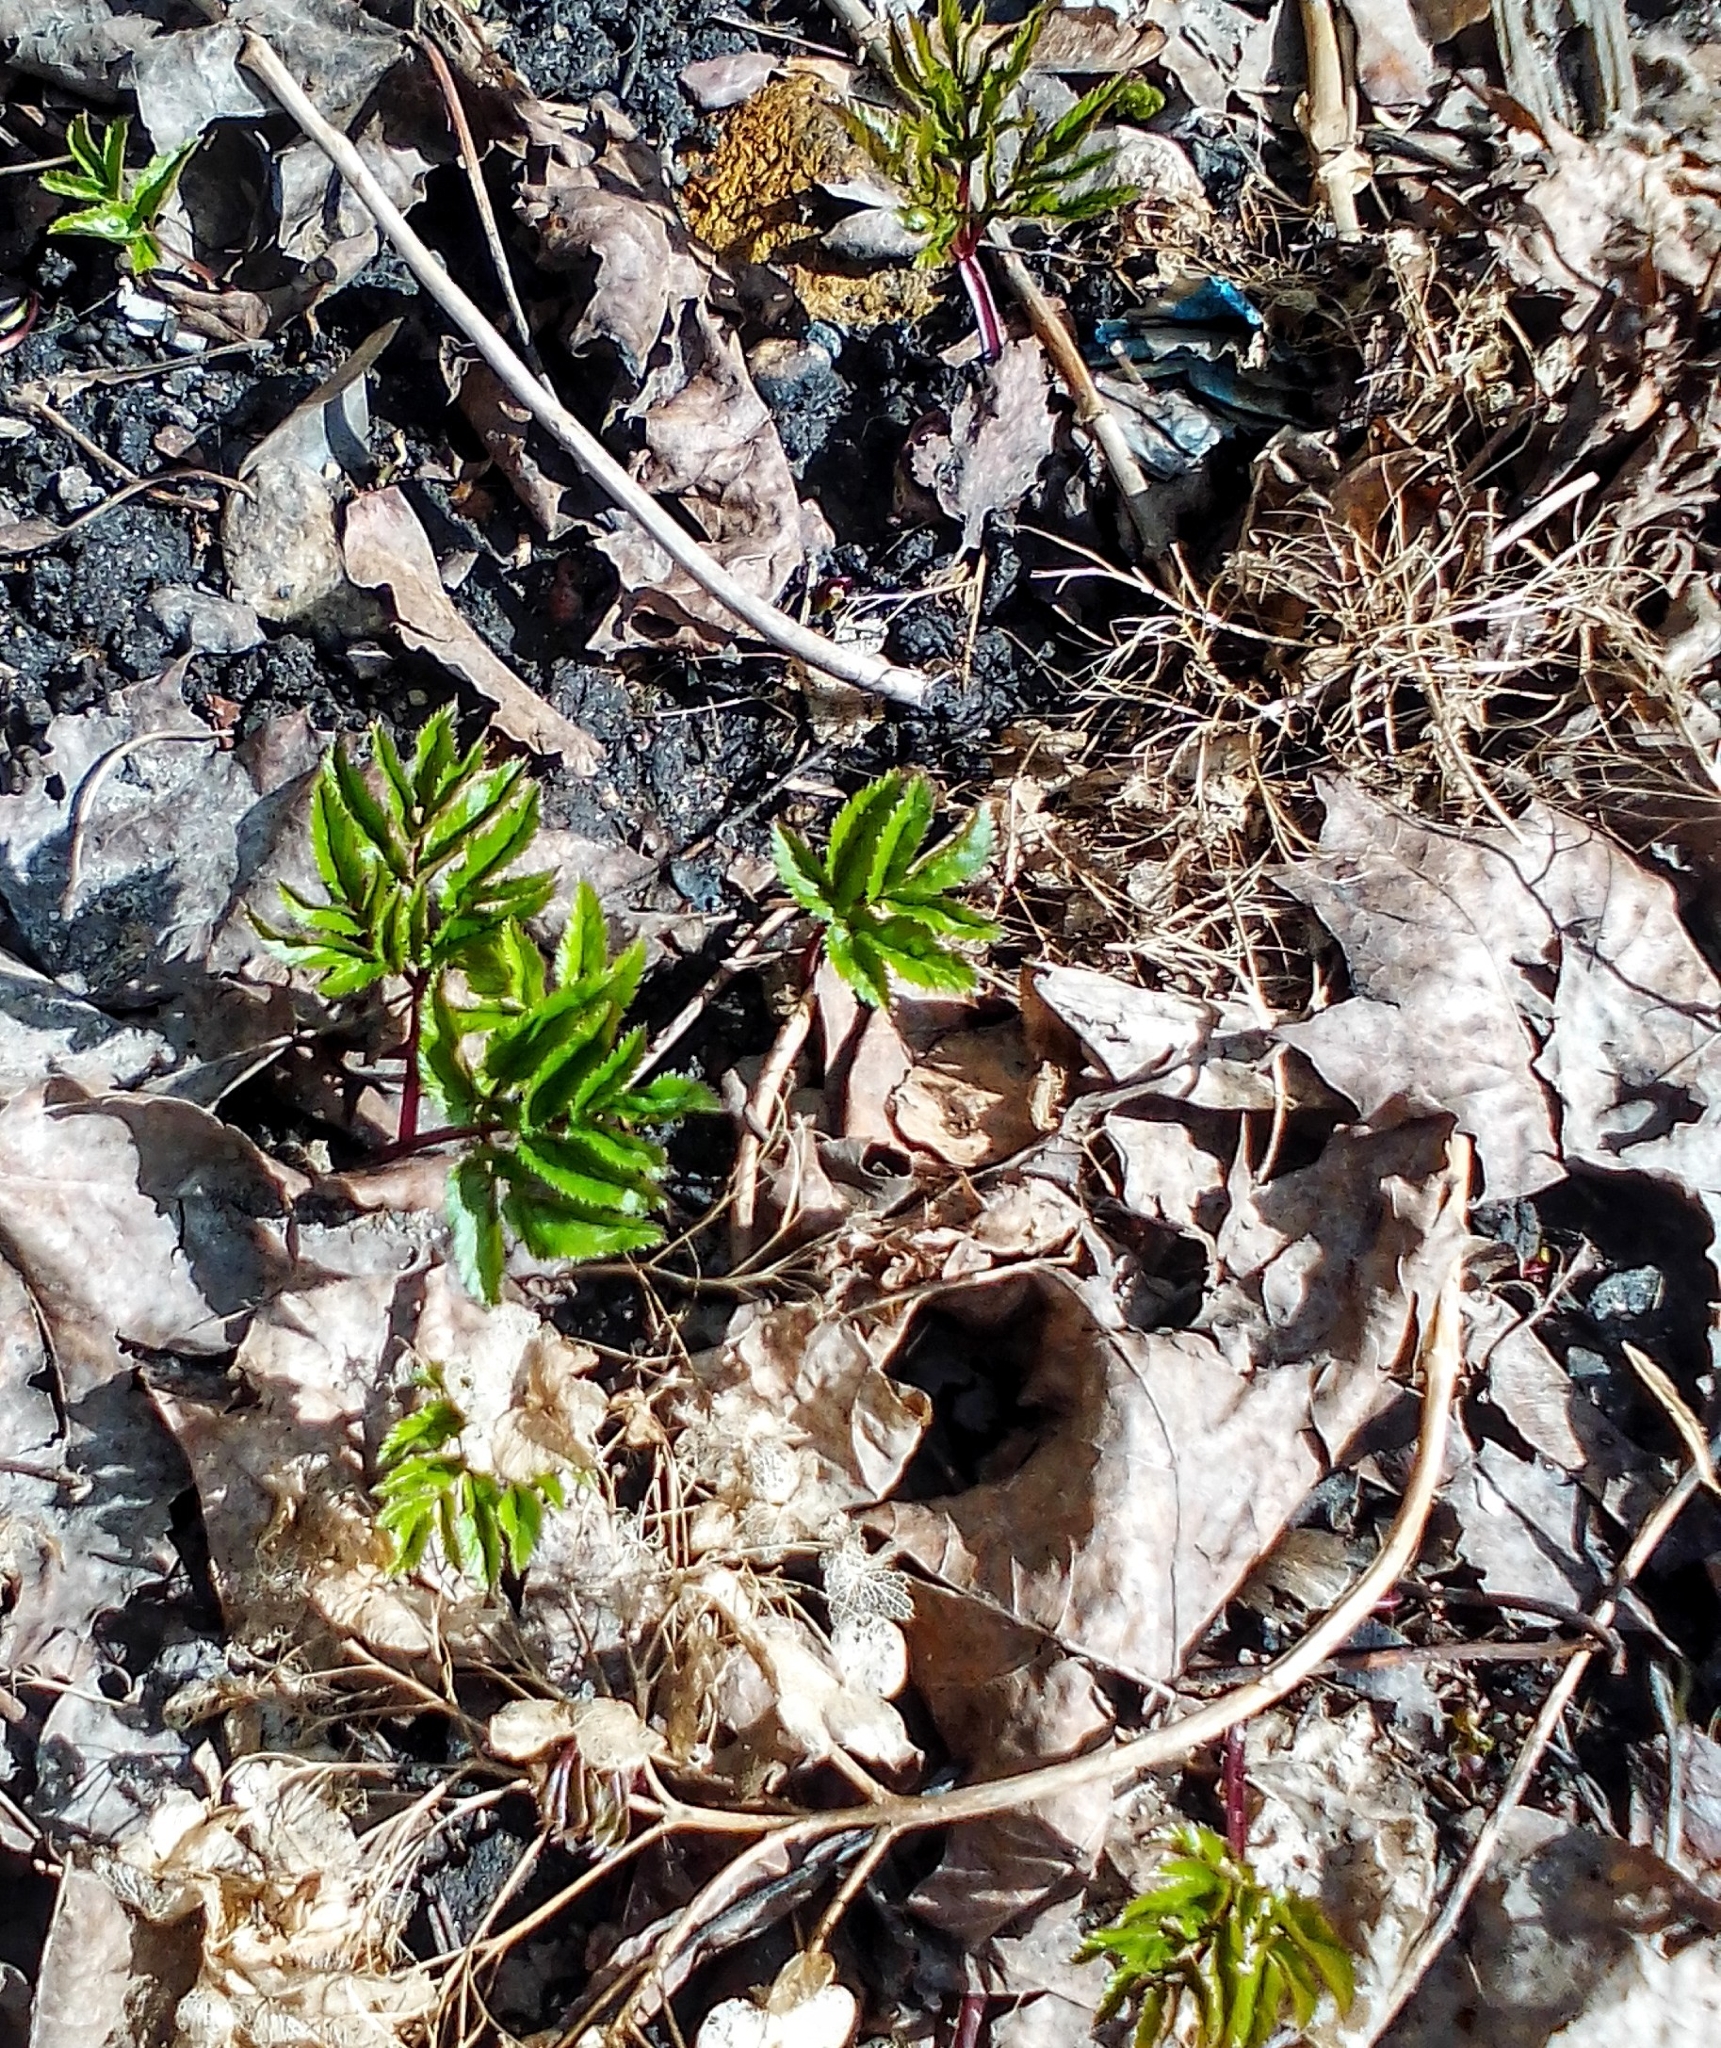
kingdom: Plantae
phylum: Tracheophyta
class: Magnoliopsida
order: Apiales
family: Apiaceae
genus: Aegopodium
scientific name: Aegopodium podagraria
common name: Ground-elder
